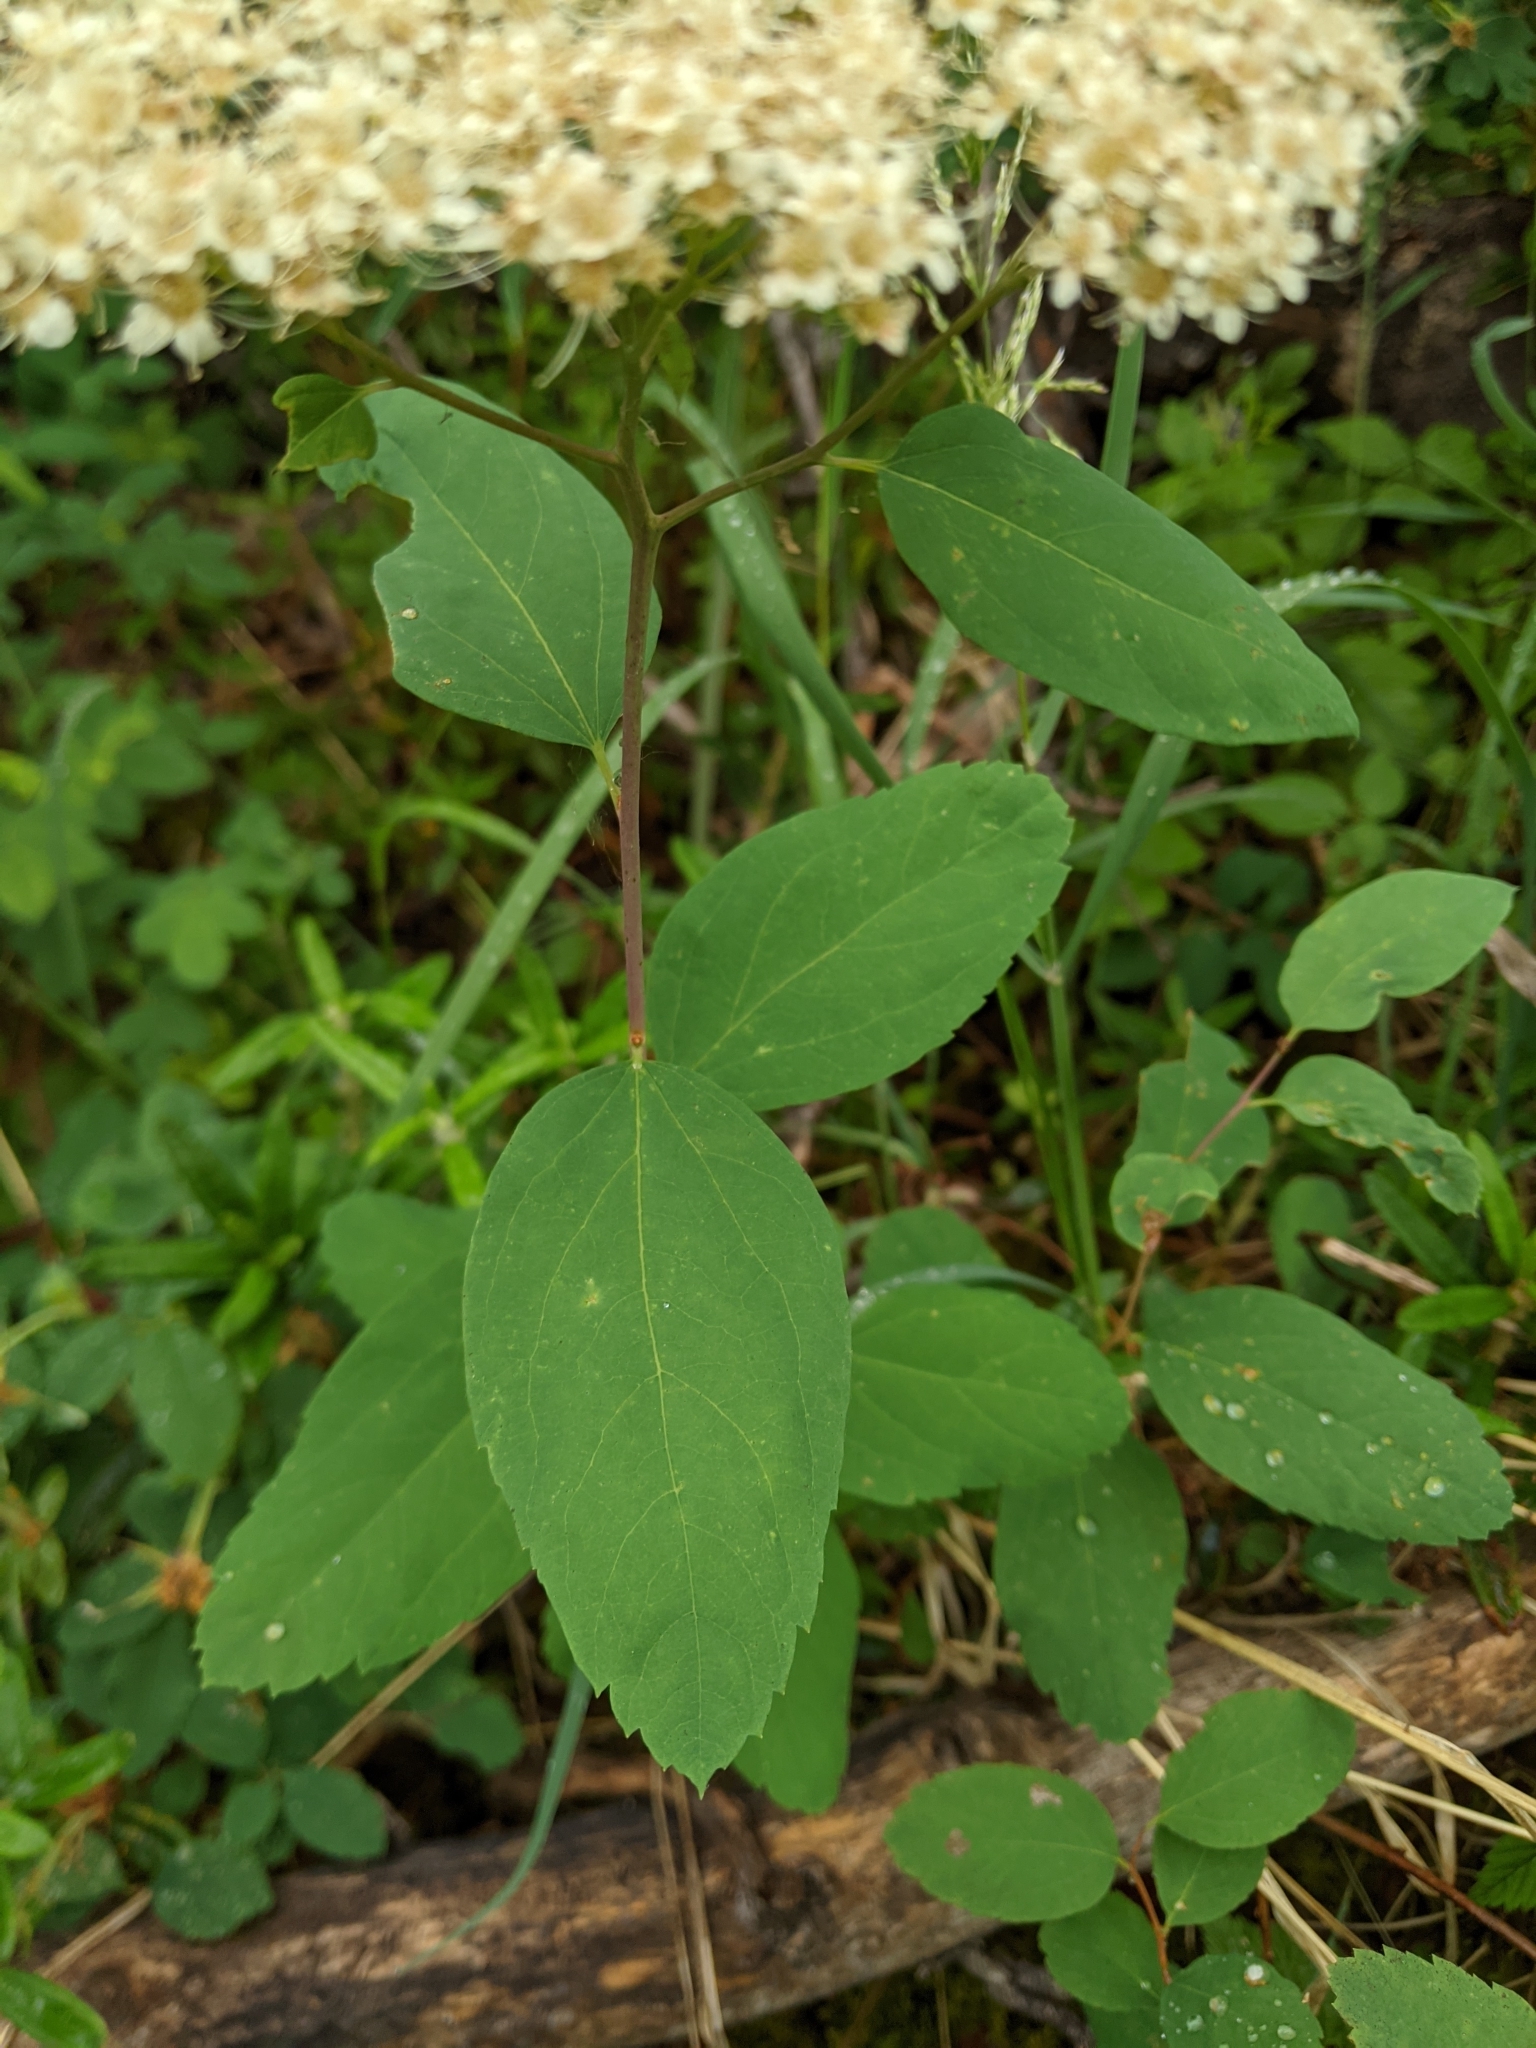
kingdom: Plantae
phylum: Tracheophyta
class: Magnoliopsida
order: Rosales
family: Rosaceae
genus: Spiraea
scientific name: Spiraea lucida
